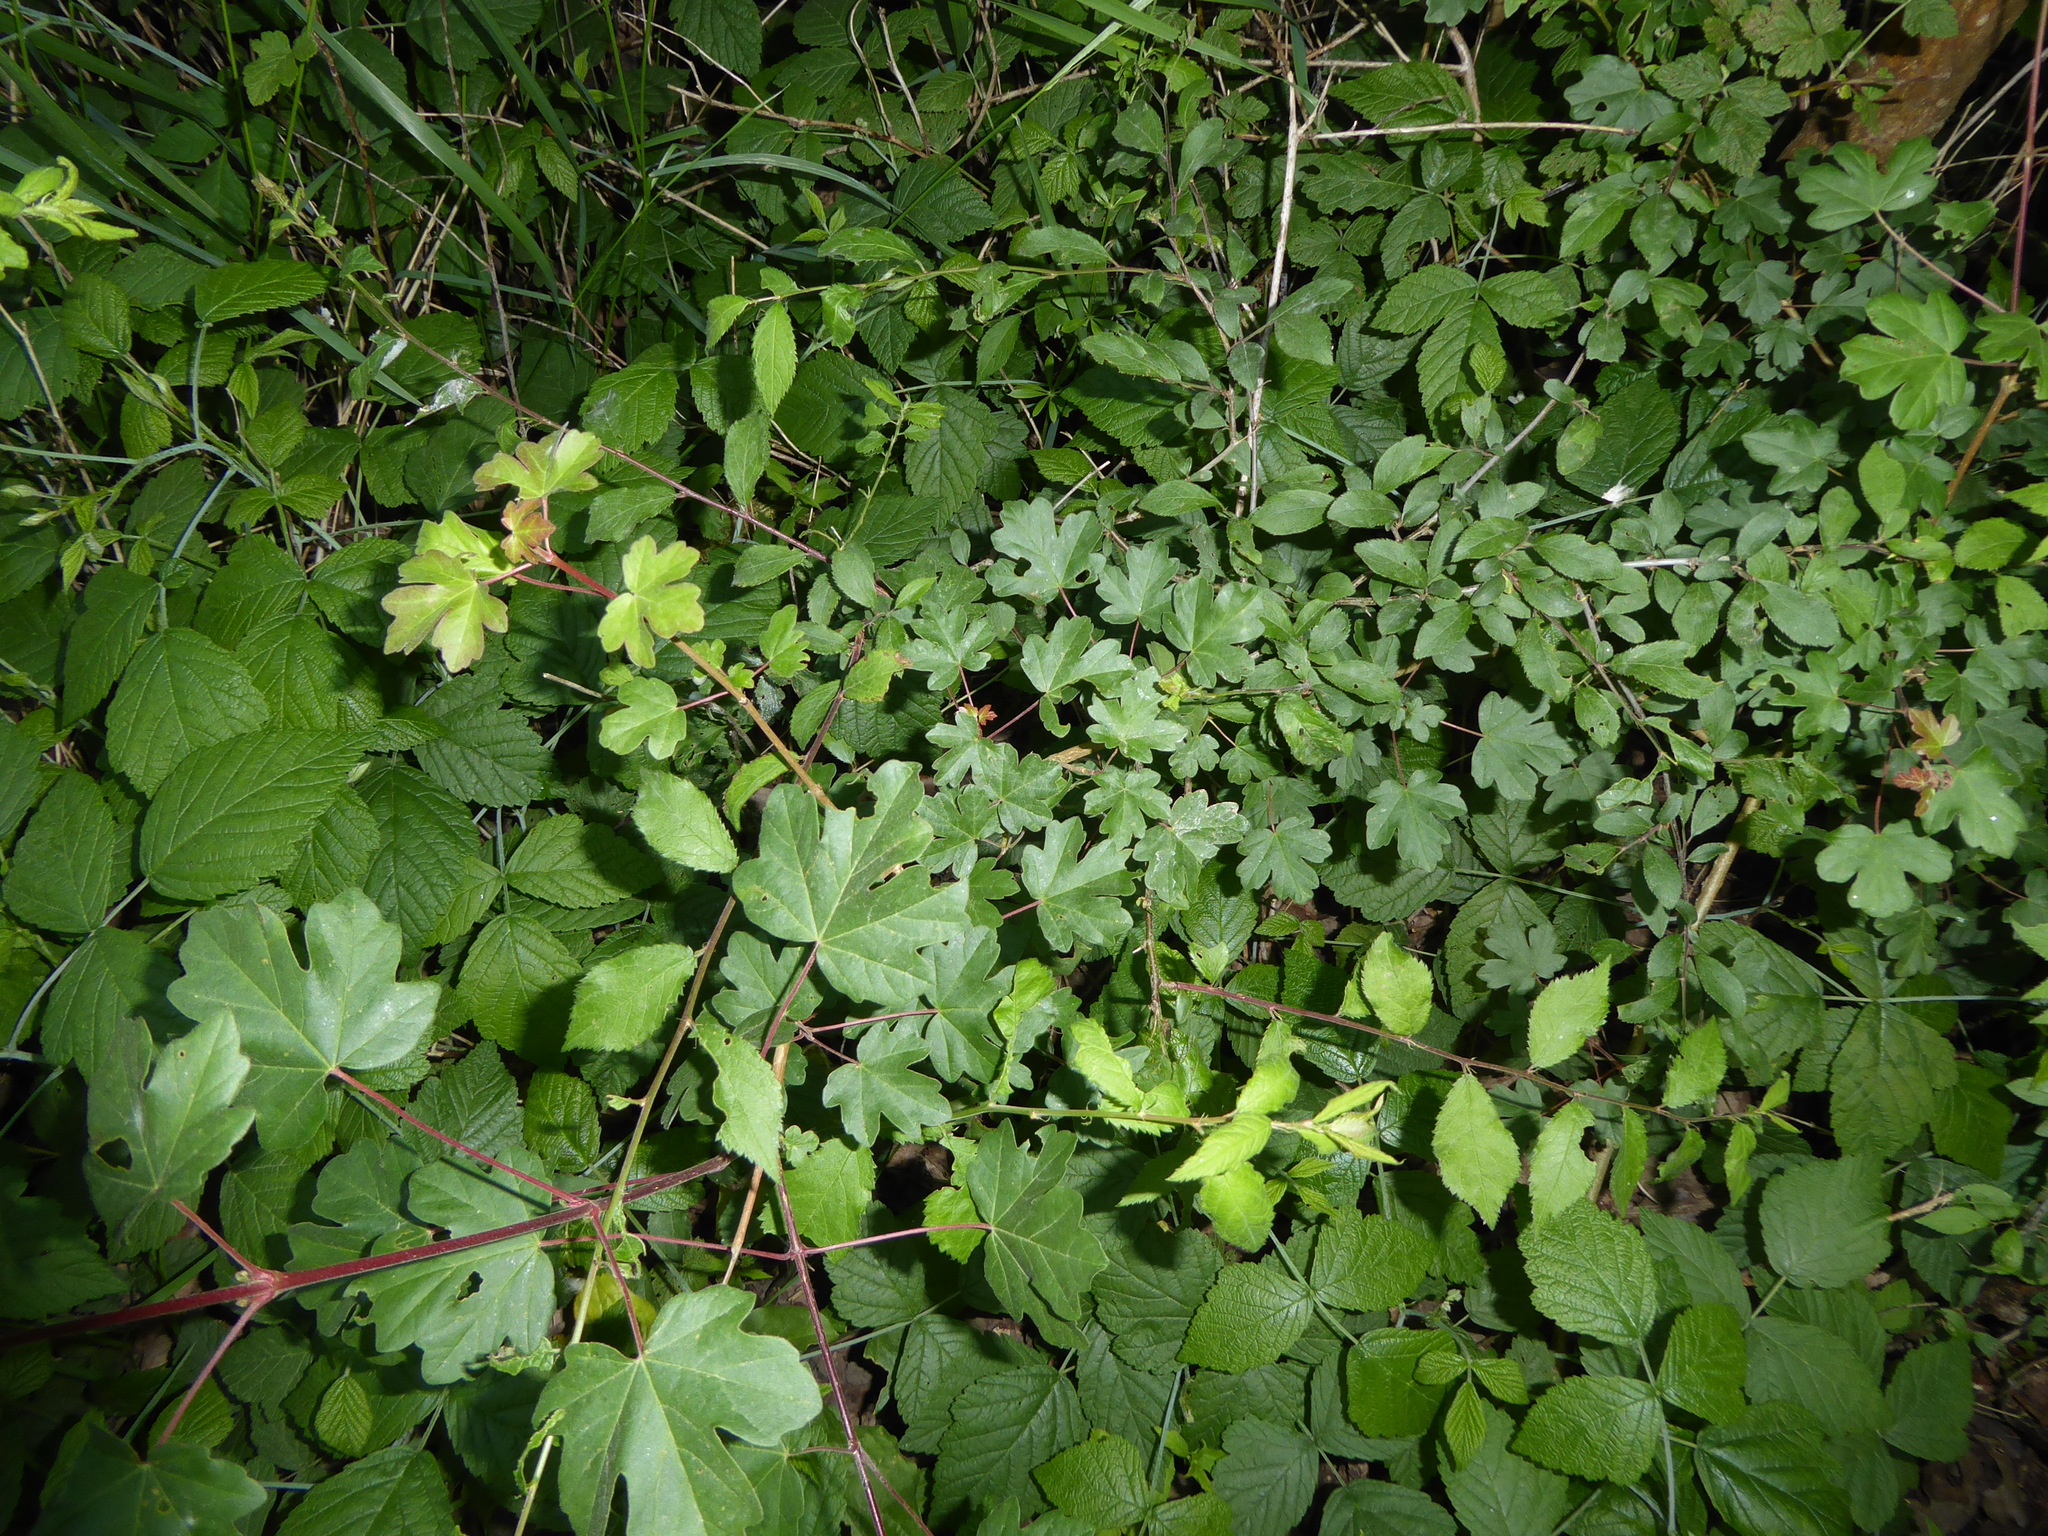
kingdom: Plantae
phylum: Tracheophyta
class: Magnoliopsida
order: Sapindales
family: Sapindaceae
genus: Acer
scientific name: Acer campestre
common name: Field maple
